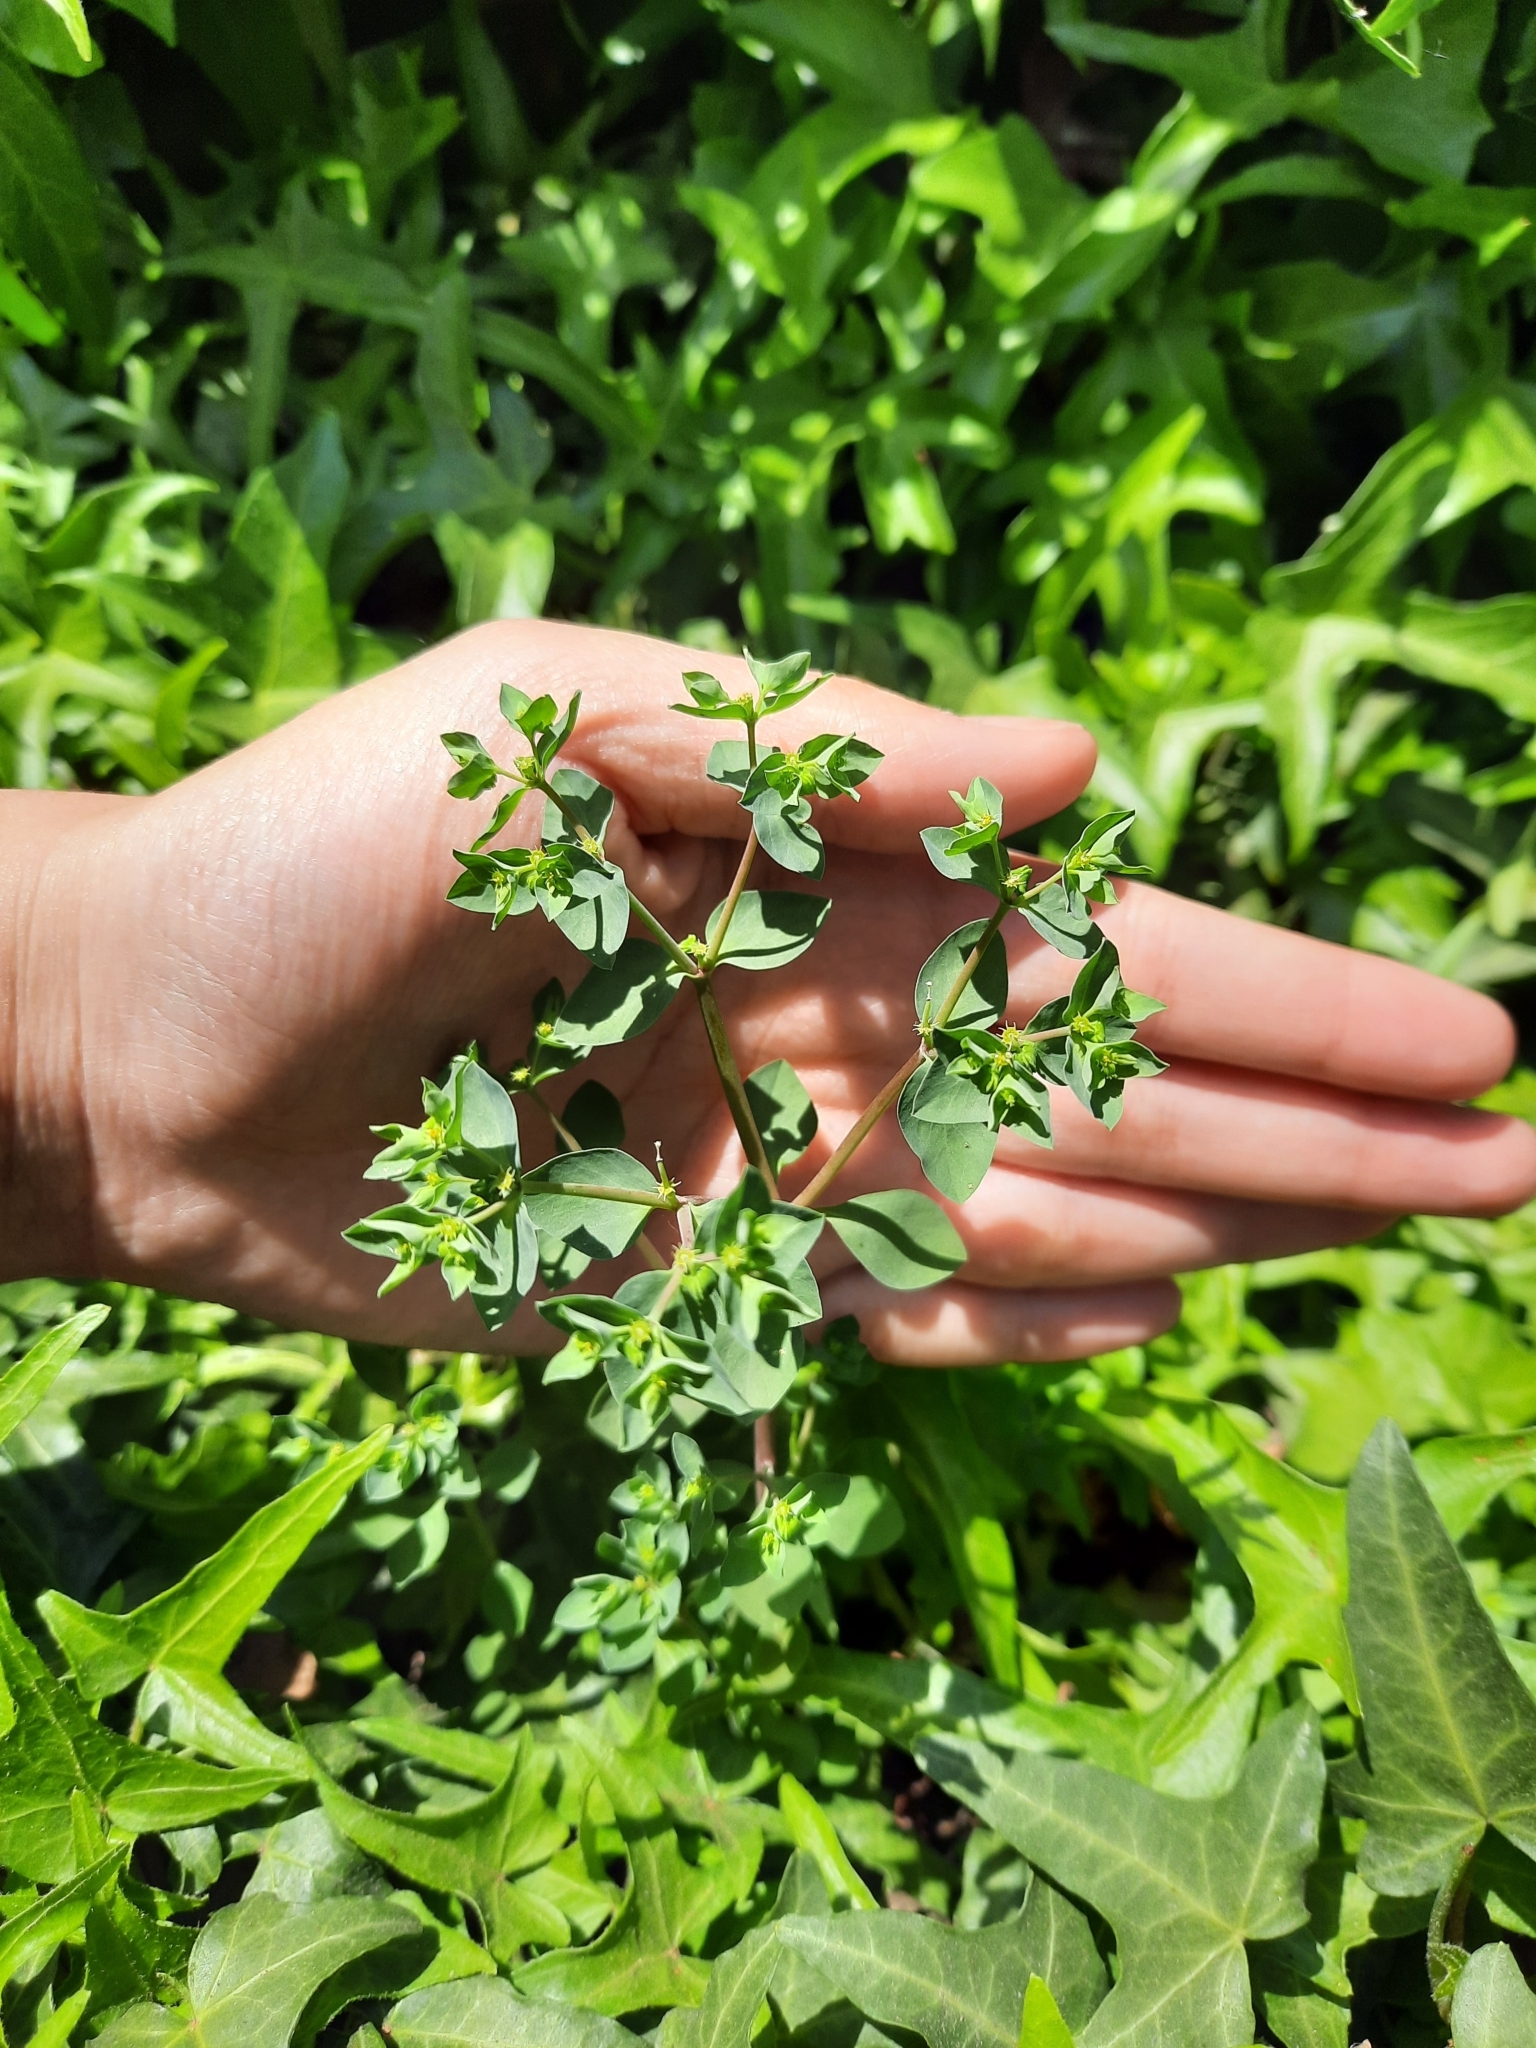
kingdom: Plantae
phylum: Tracheophyta
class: Magnoliopsida
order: Malpighiales
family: Euphorbiaceae
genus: Euphorbia
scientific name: Euphorbia peplus
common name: Petty spurge
